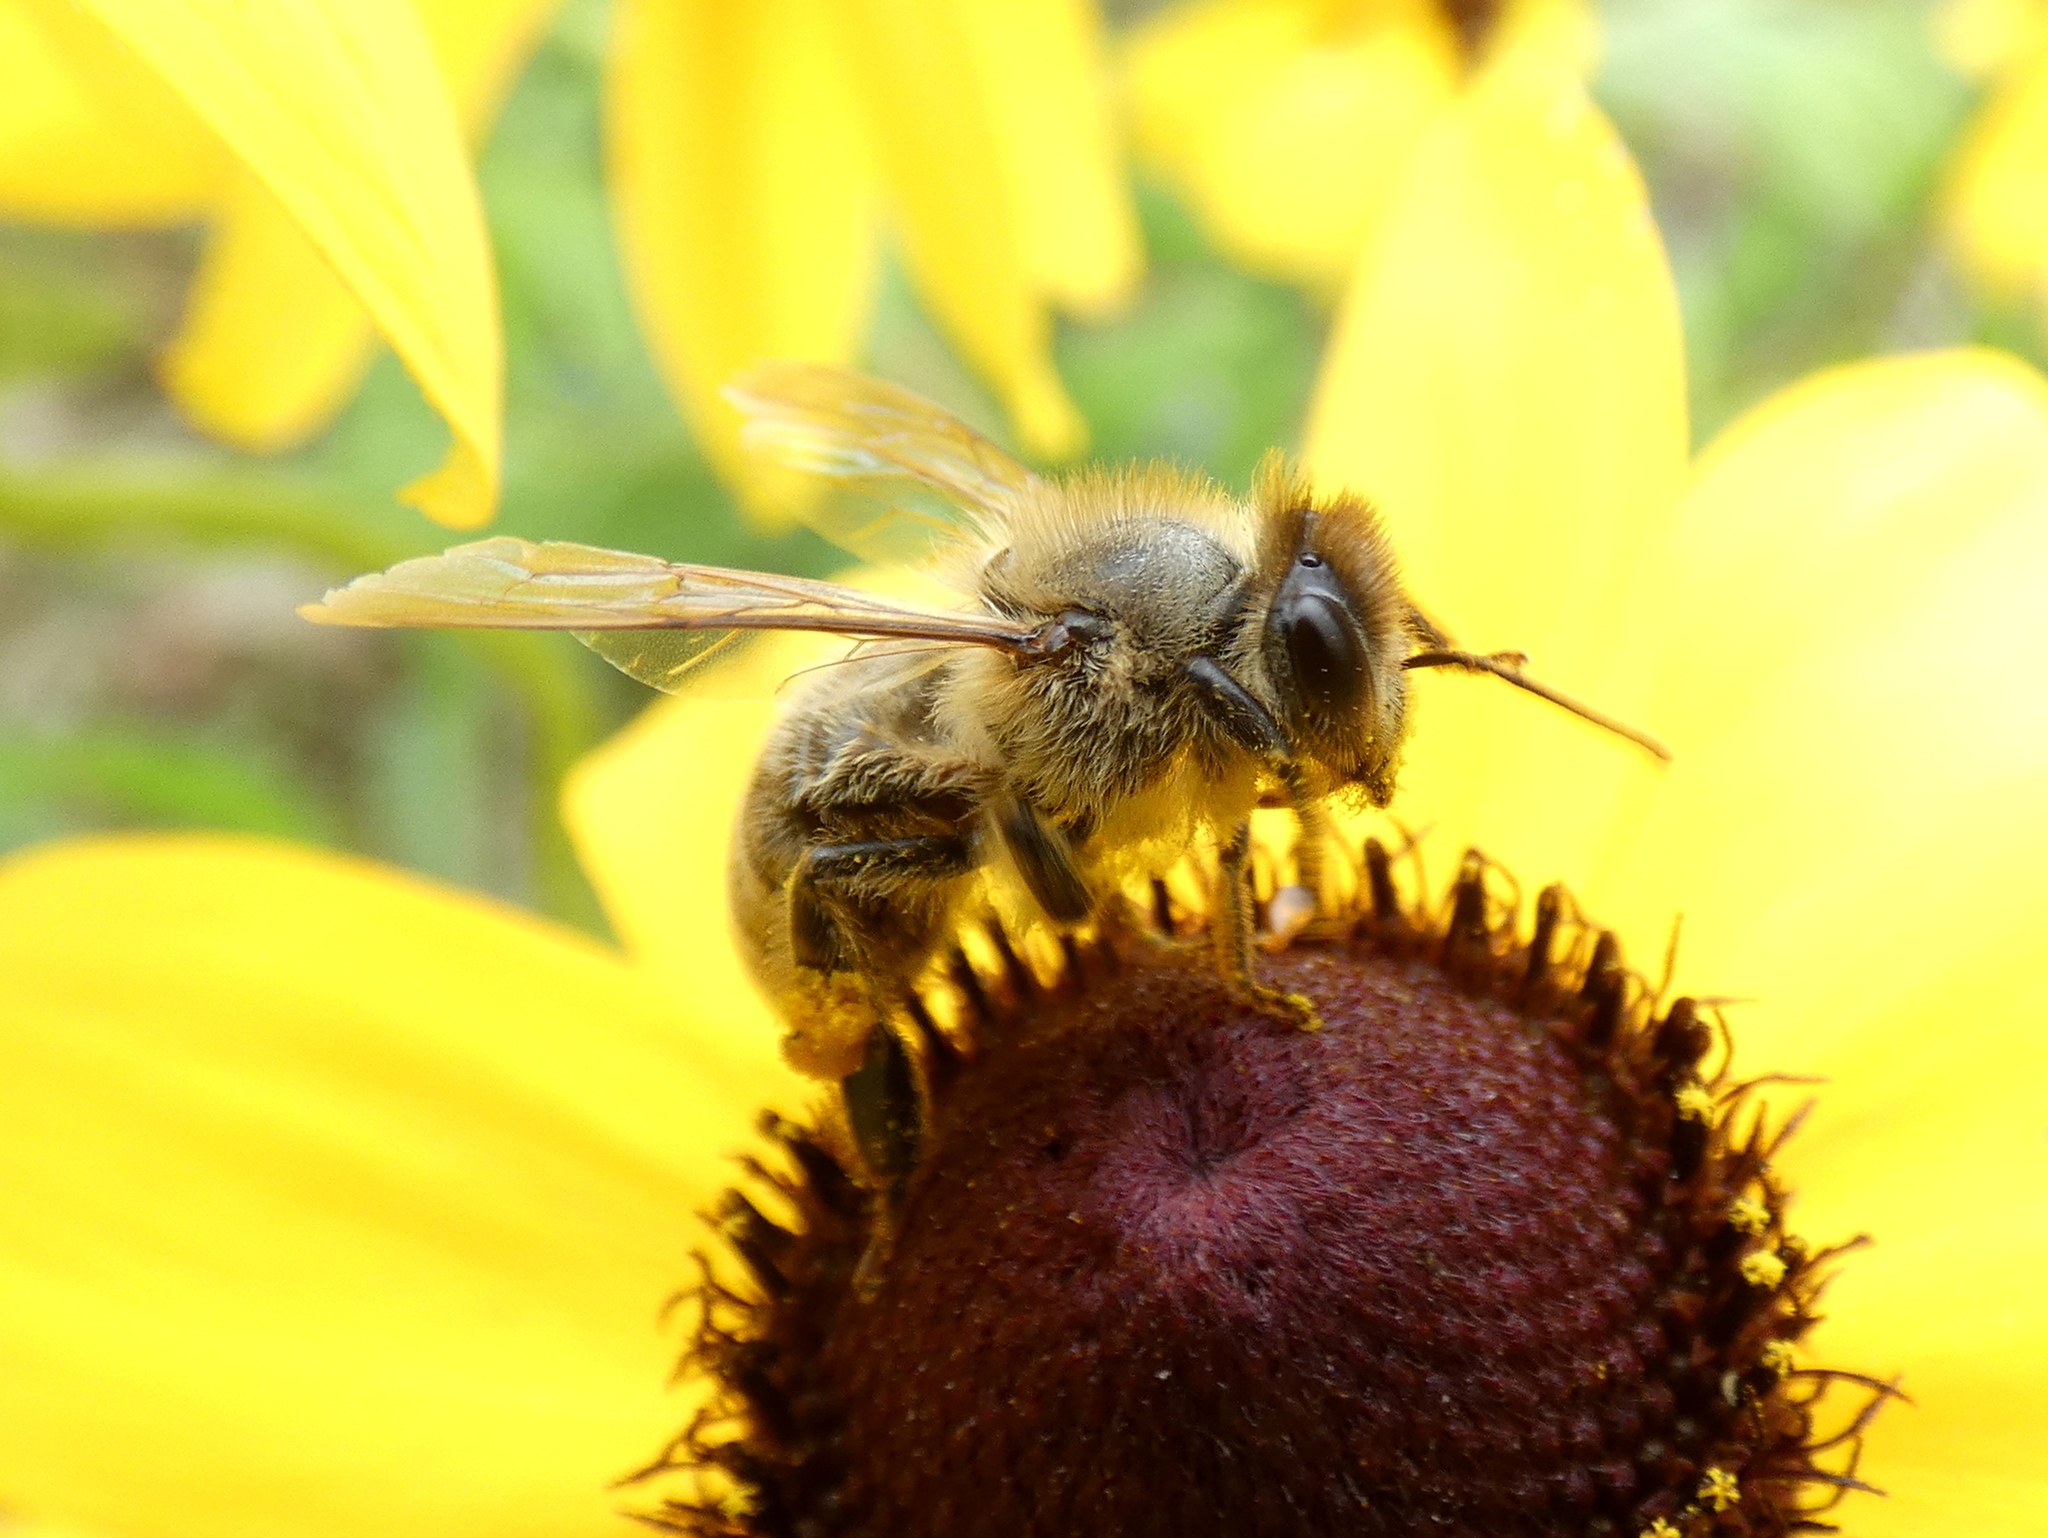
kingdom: Animalia
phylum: Arthropoda
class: Insecta
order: Hymenoptera
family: Apidae
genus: Apis
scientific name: Apis mellifera
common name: Honey bee
